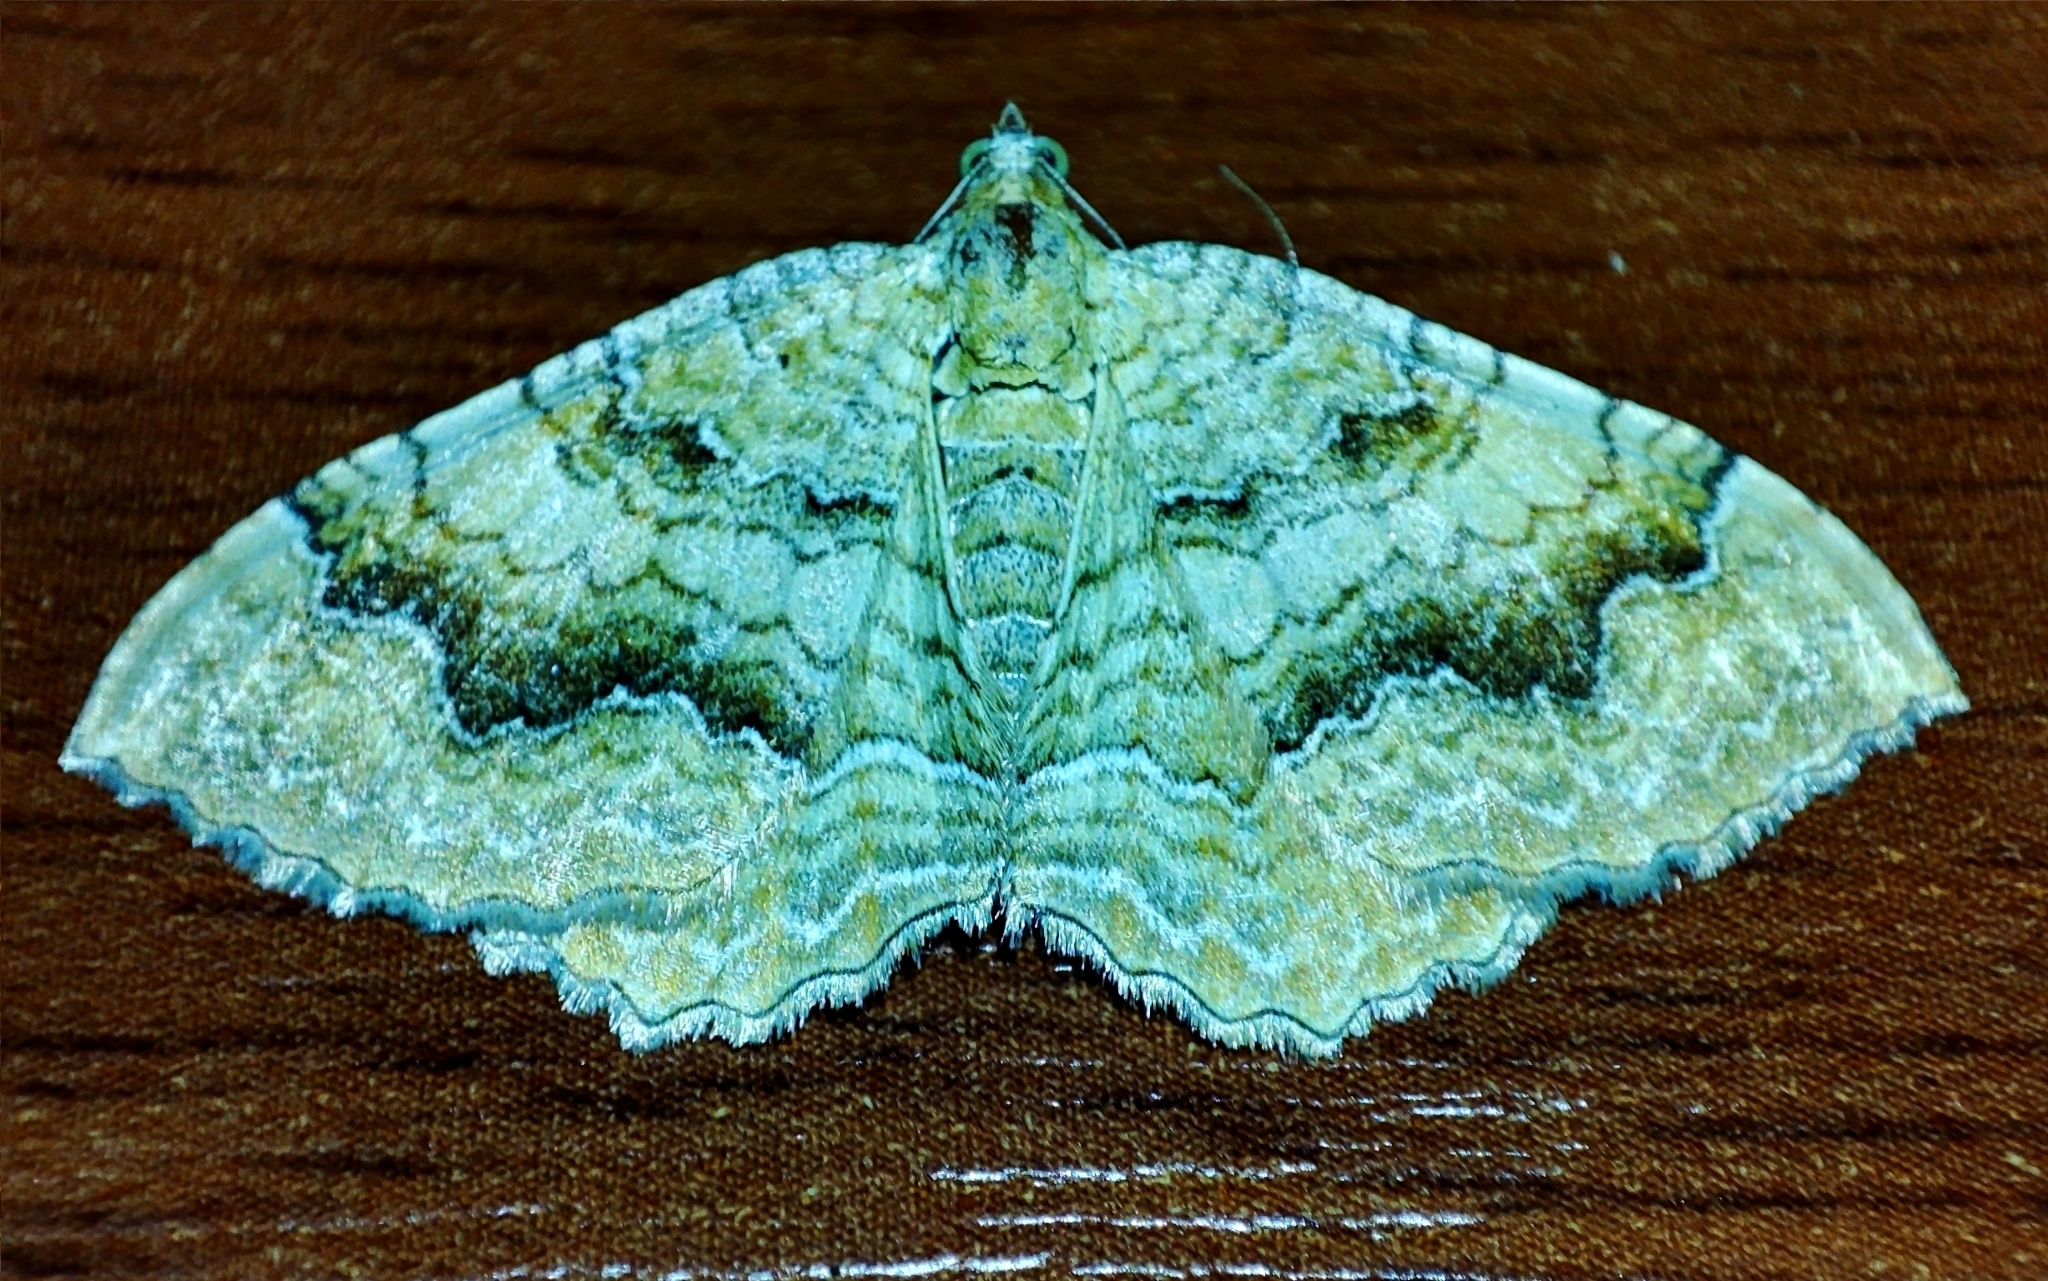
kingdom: Animalia
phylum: Arthropoda
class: Insecta
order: Lepidoptera
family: Geometridae
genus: Camptogramma
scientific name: Camptogramma bilineata
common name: Yellow shell
